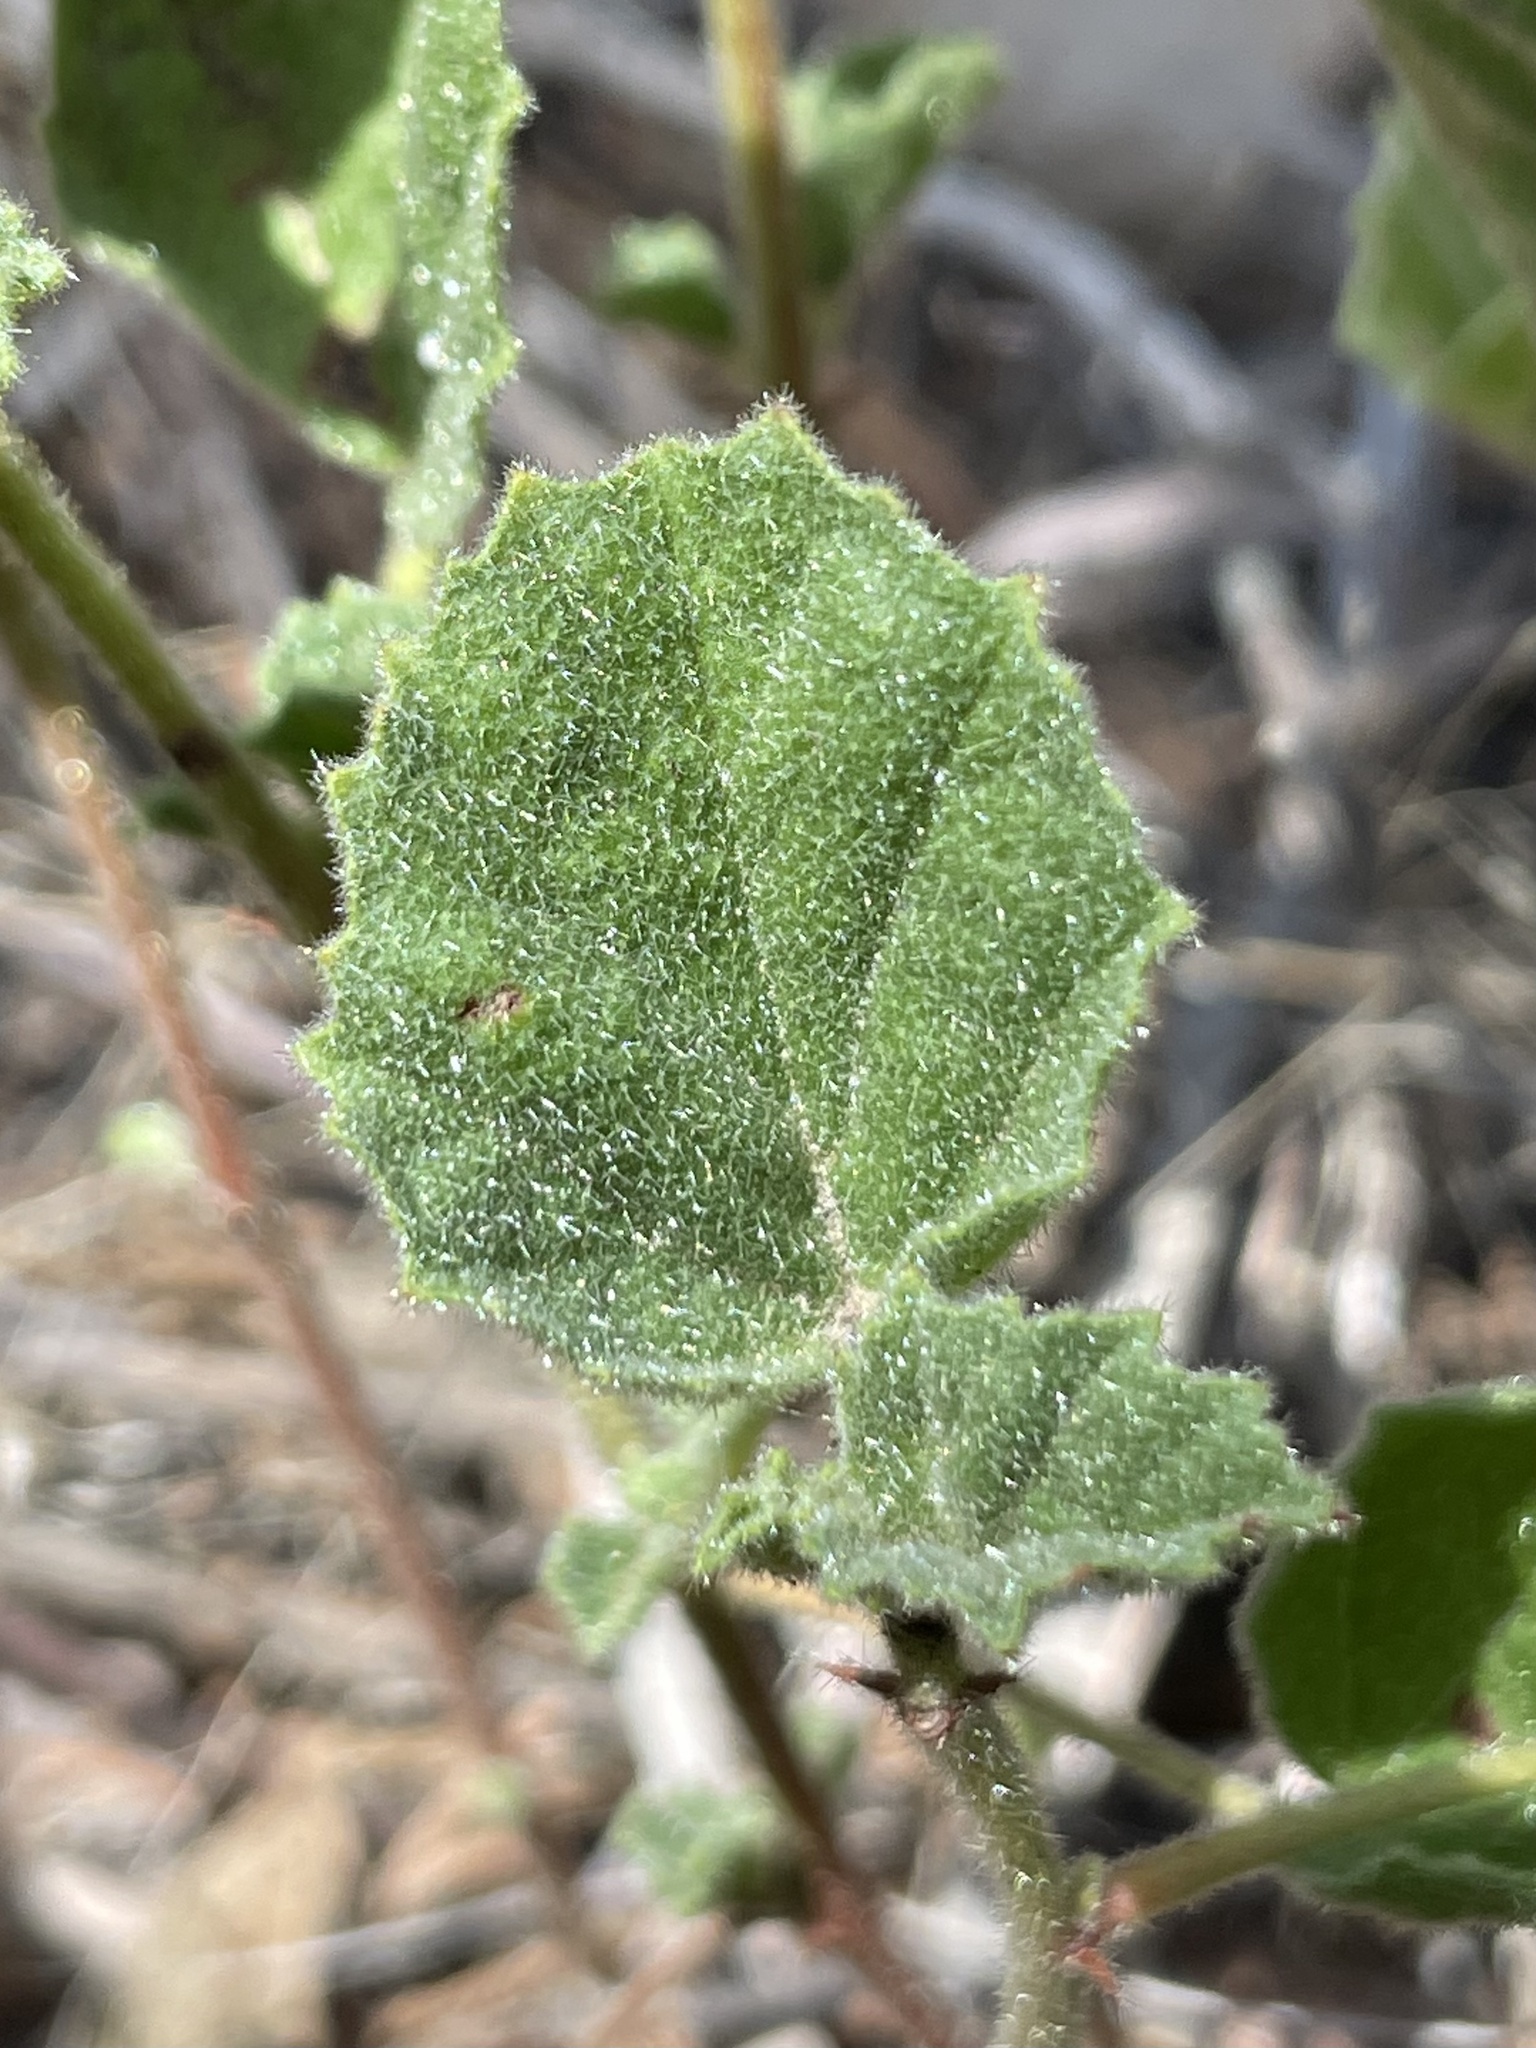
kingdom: Plantae
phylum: Tracheophyta
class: Magnoliopsida
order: Malvales
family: Malvaceae
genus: Hermannia
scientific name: Hermannia texana
